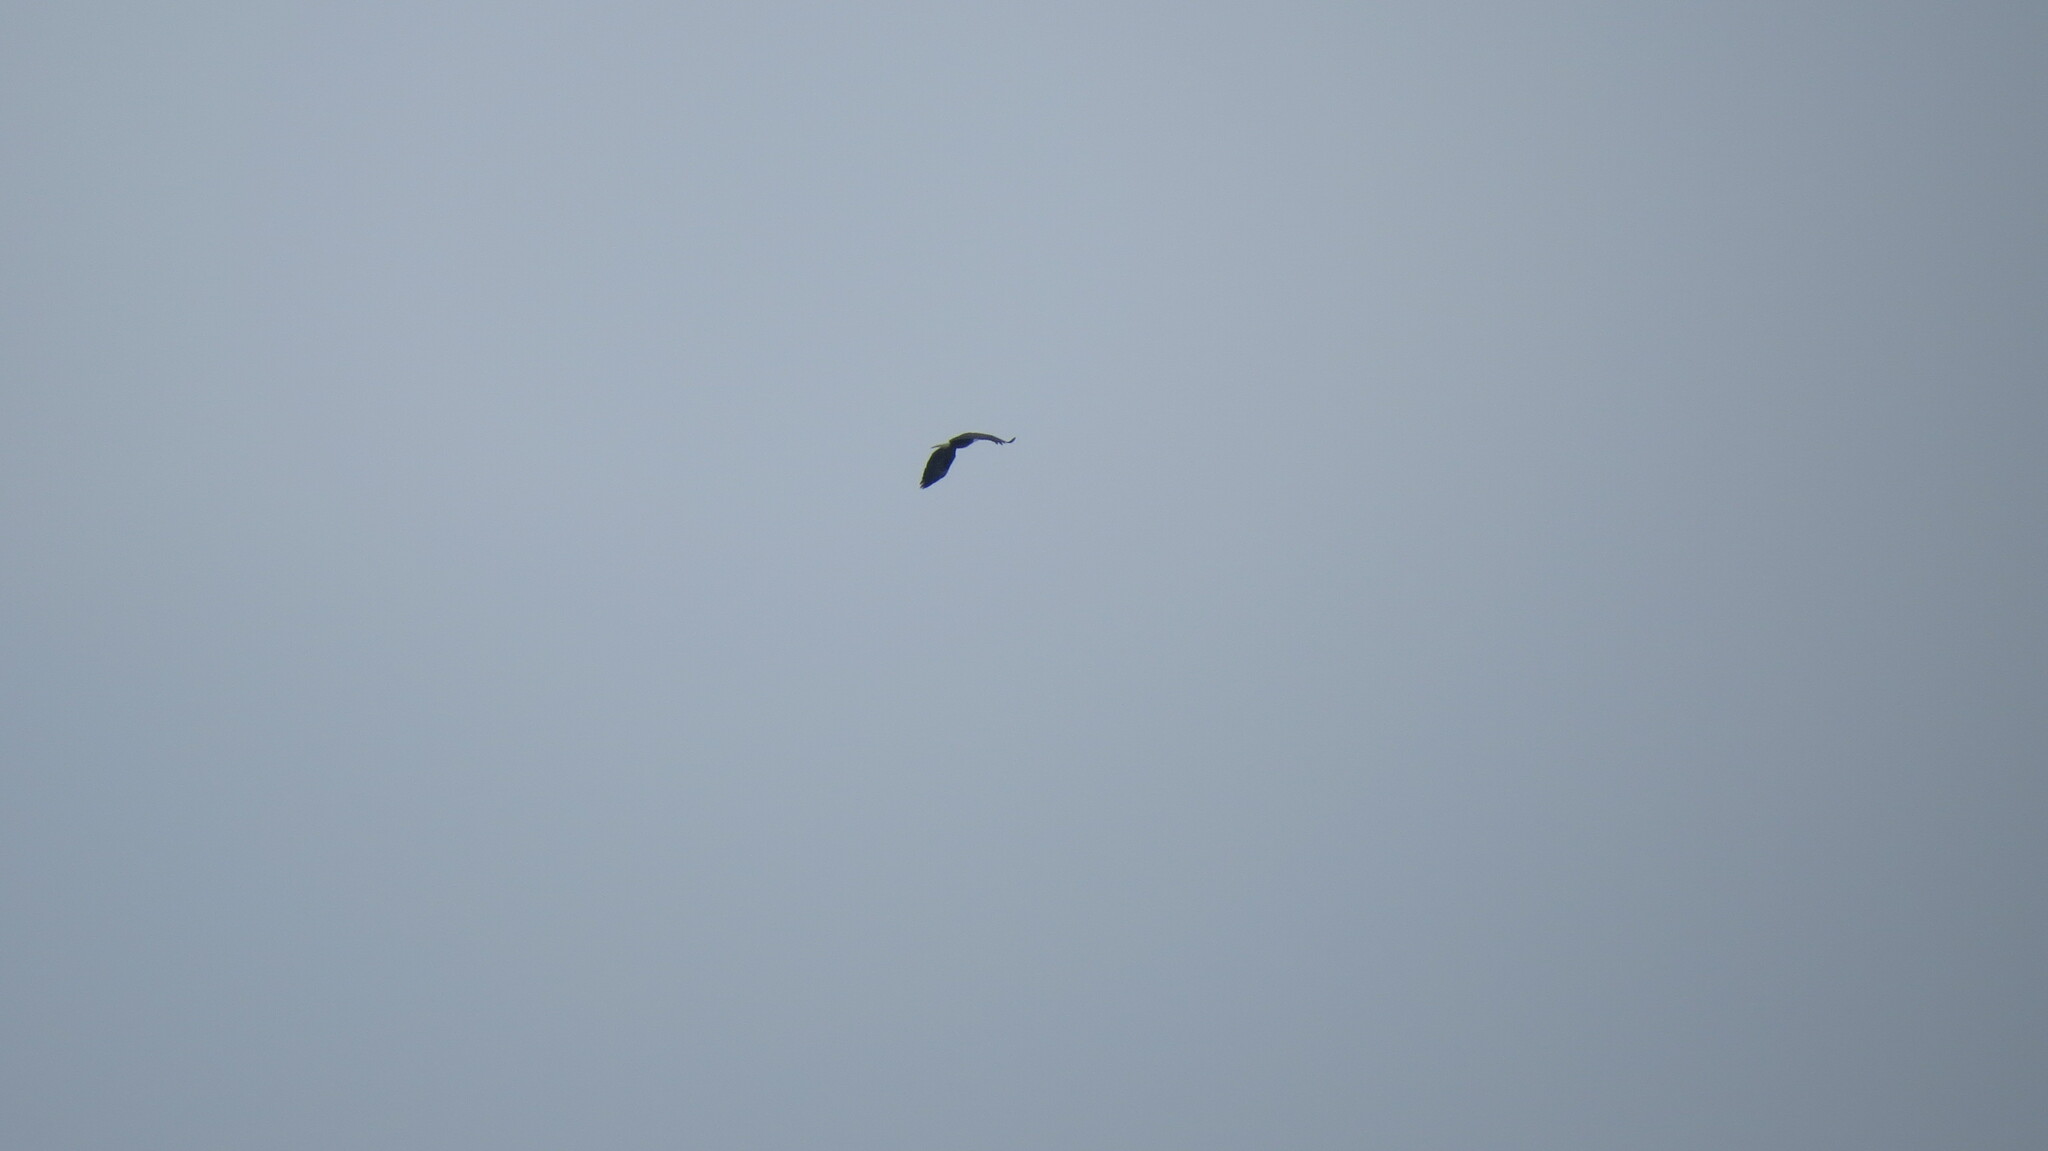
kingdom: Animalia
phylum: Chordata
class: Aves
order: Accipitriformes
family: Accipitridae
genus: Haliaeetus
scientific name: Haliaeetus leucocephalus
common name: Bald eagle
